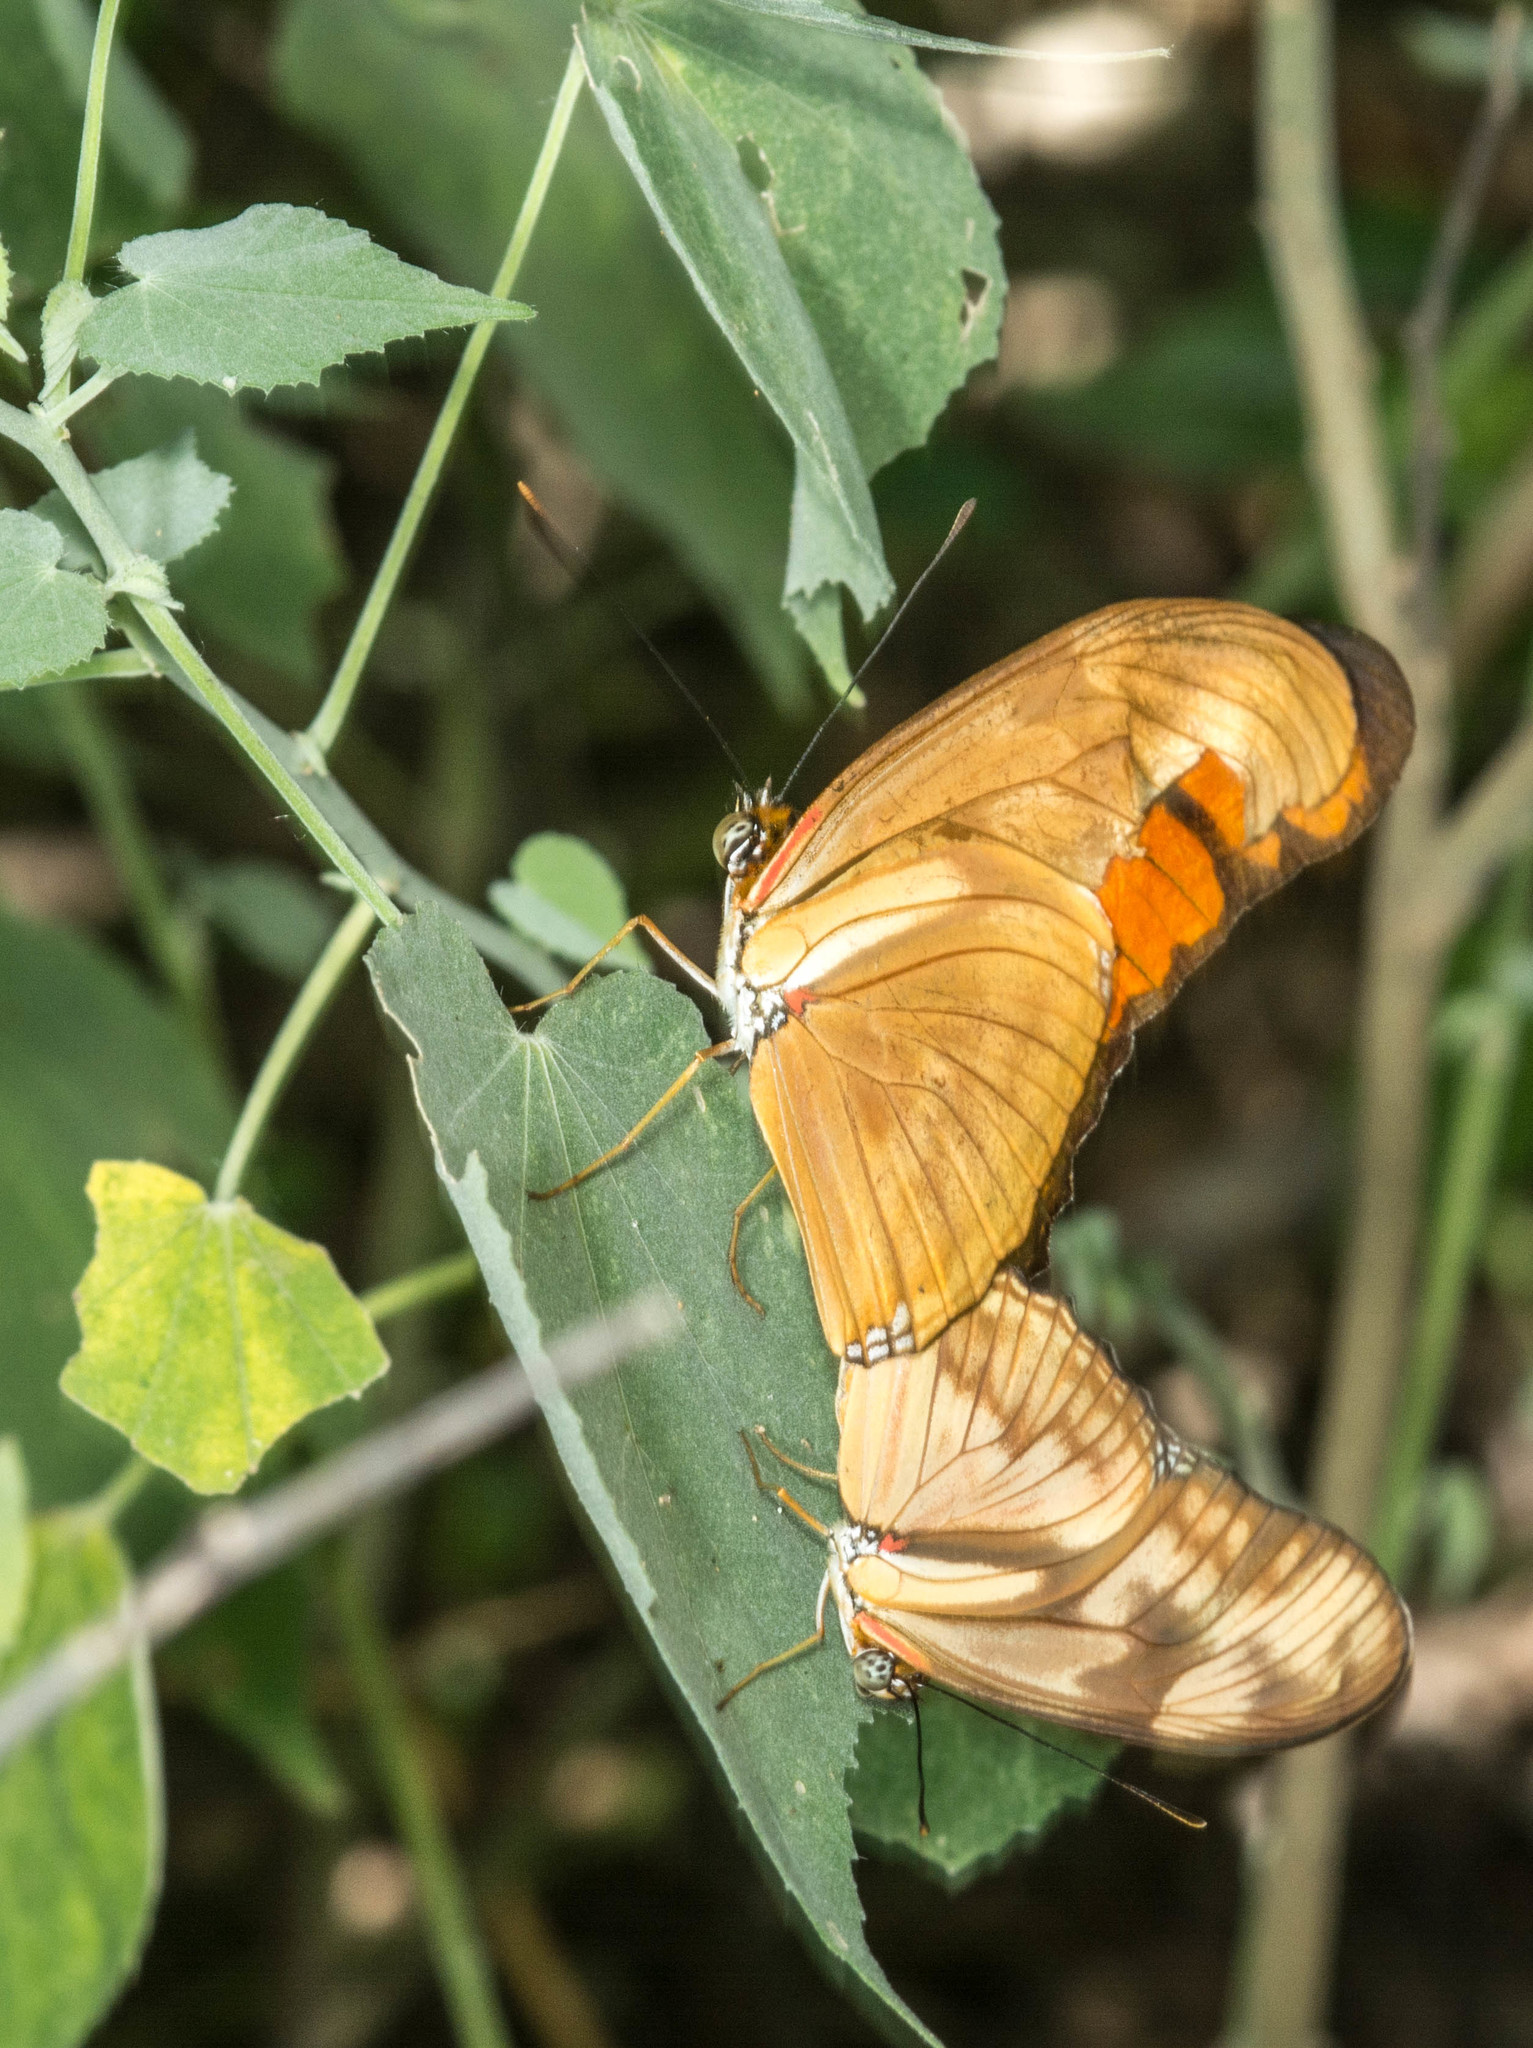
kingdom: Animalia
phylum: Arthropoda
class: Insecta
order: Lepidoptera
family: Nymphalidae
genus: Dryas
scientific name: Dryas iulia
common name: Flambeau
